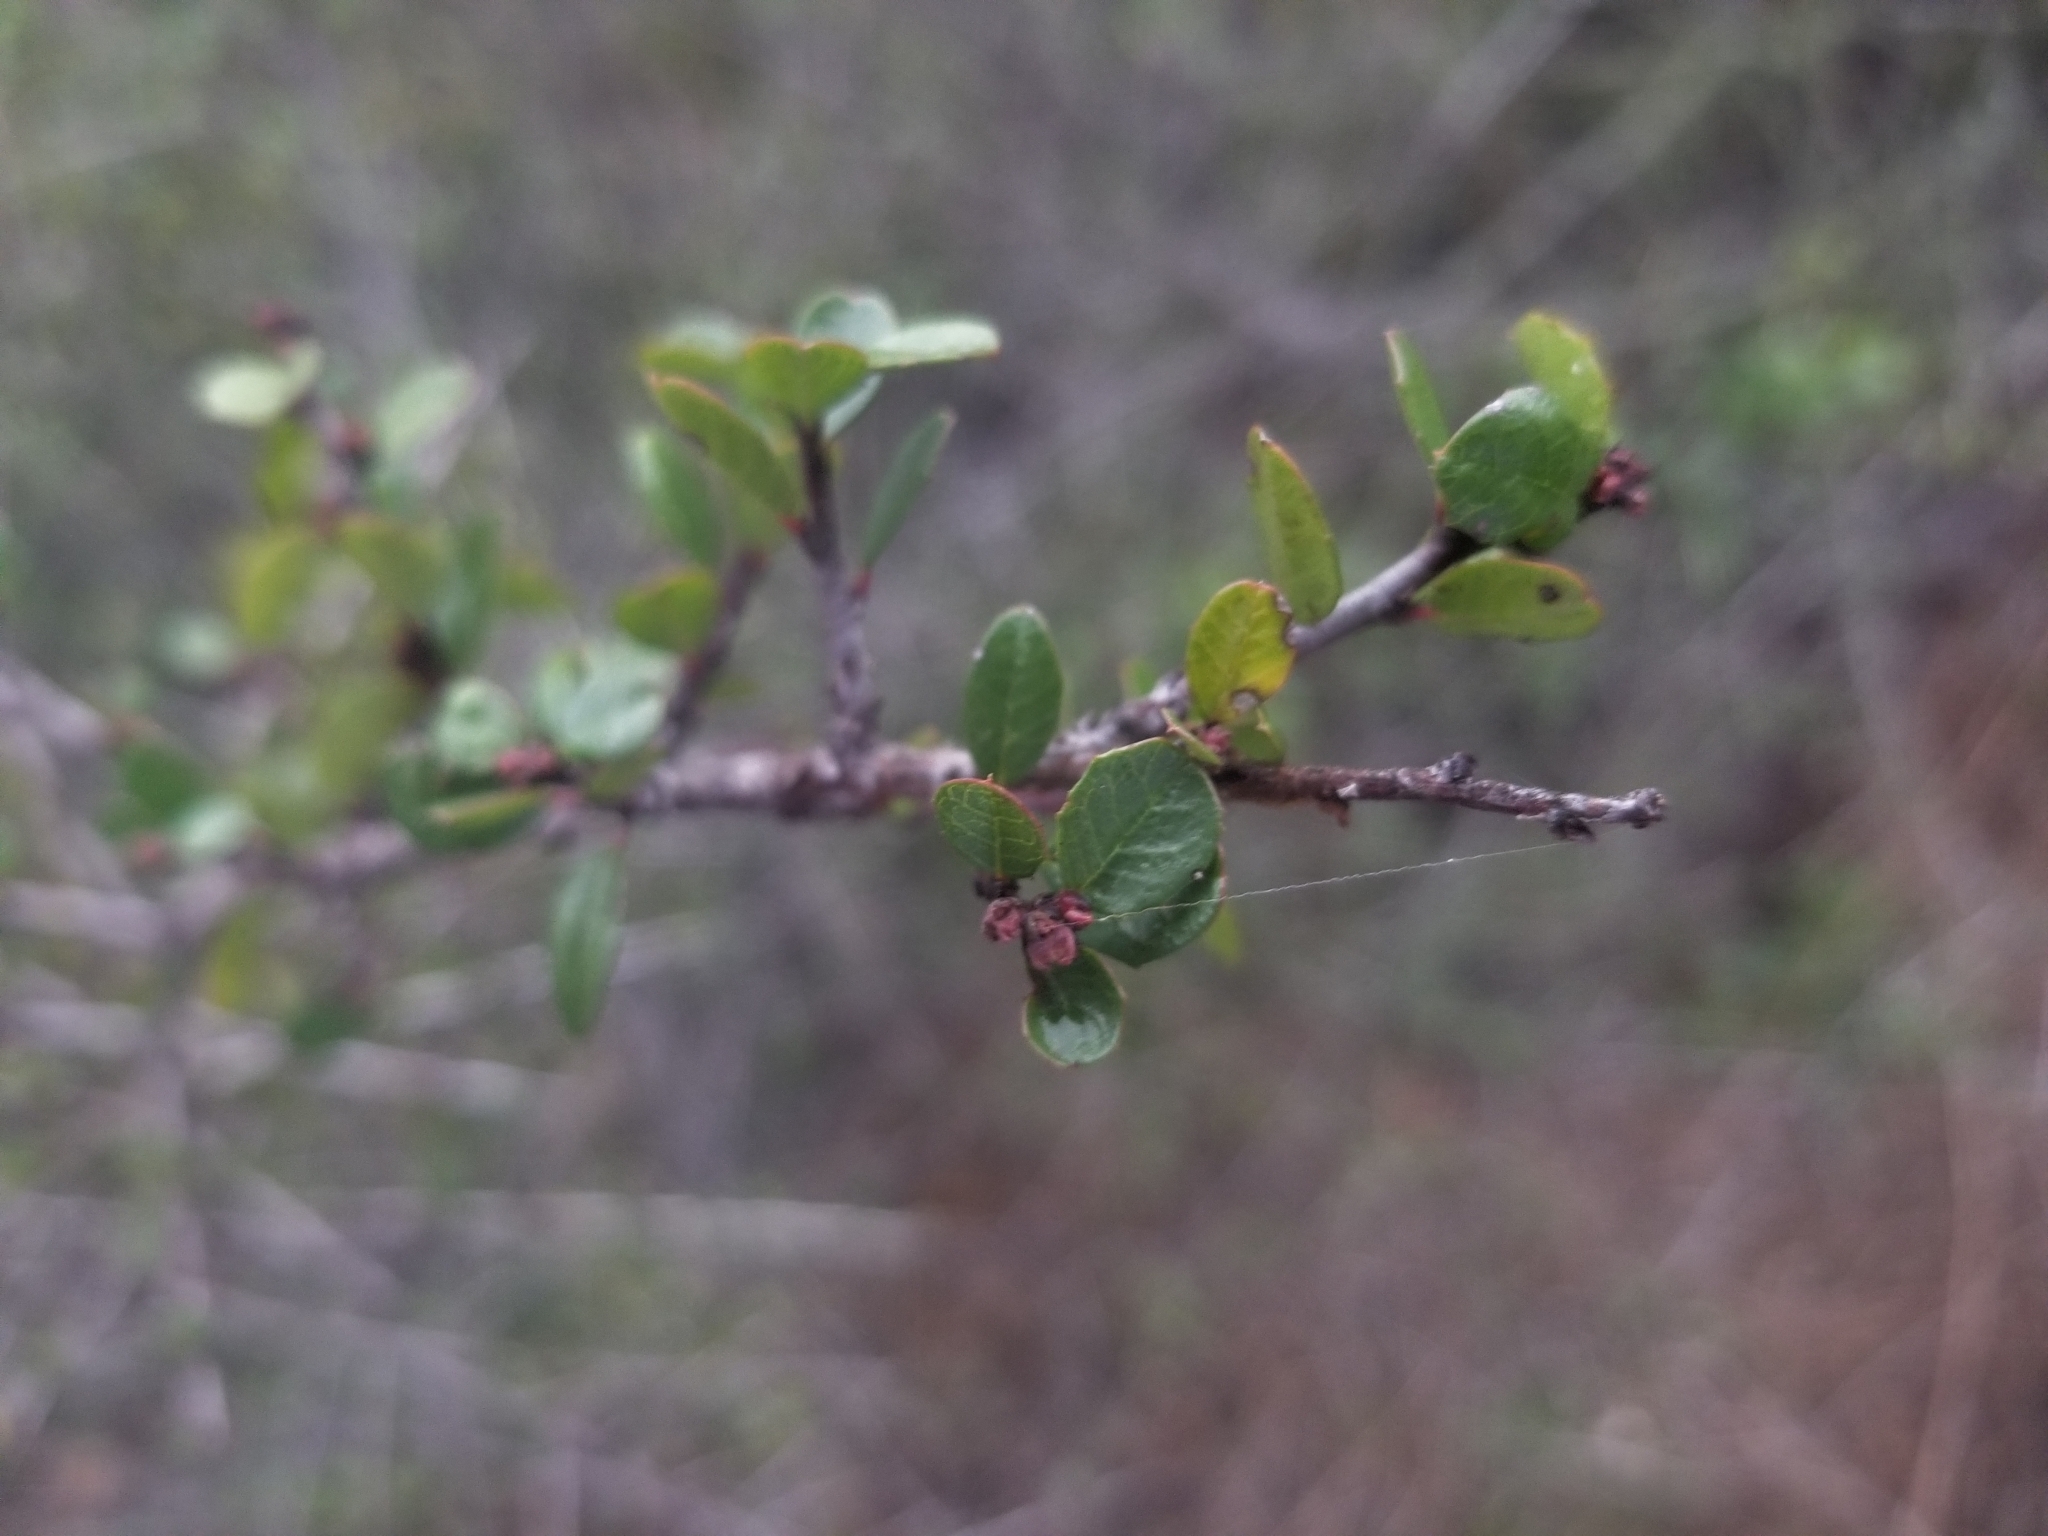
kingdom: Plantae
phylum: Tracheophyta
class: Magnoliopsida
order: Rosales
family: Rhamnaceae
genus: Endotropis
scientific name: Endotropis crocea
